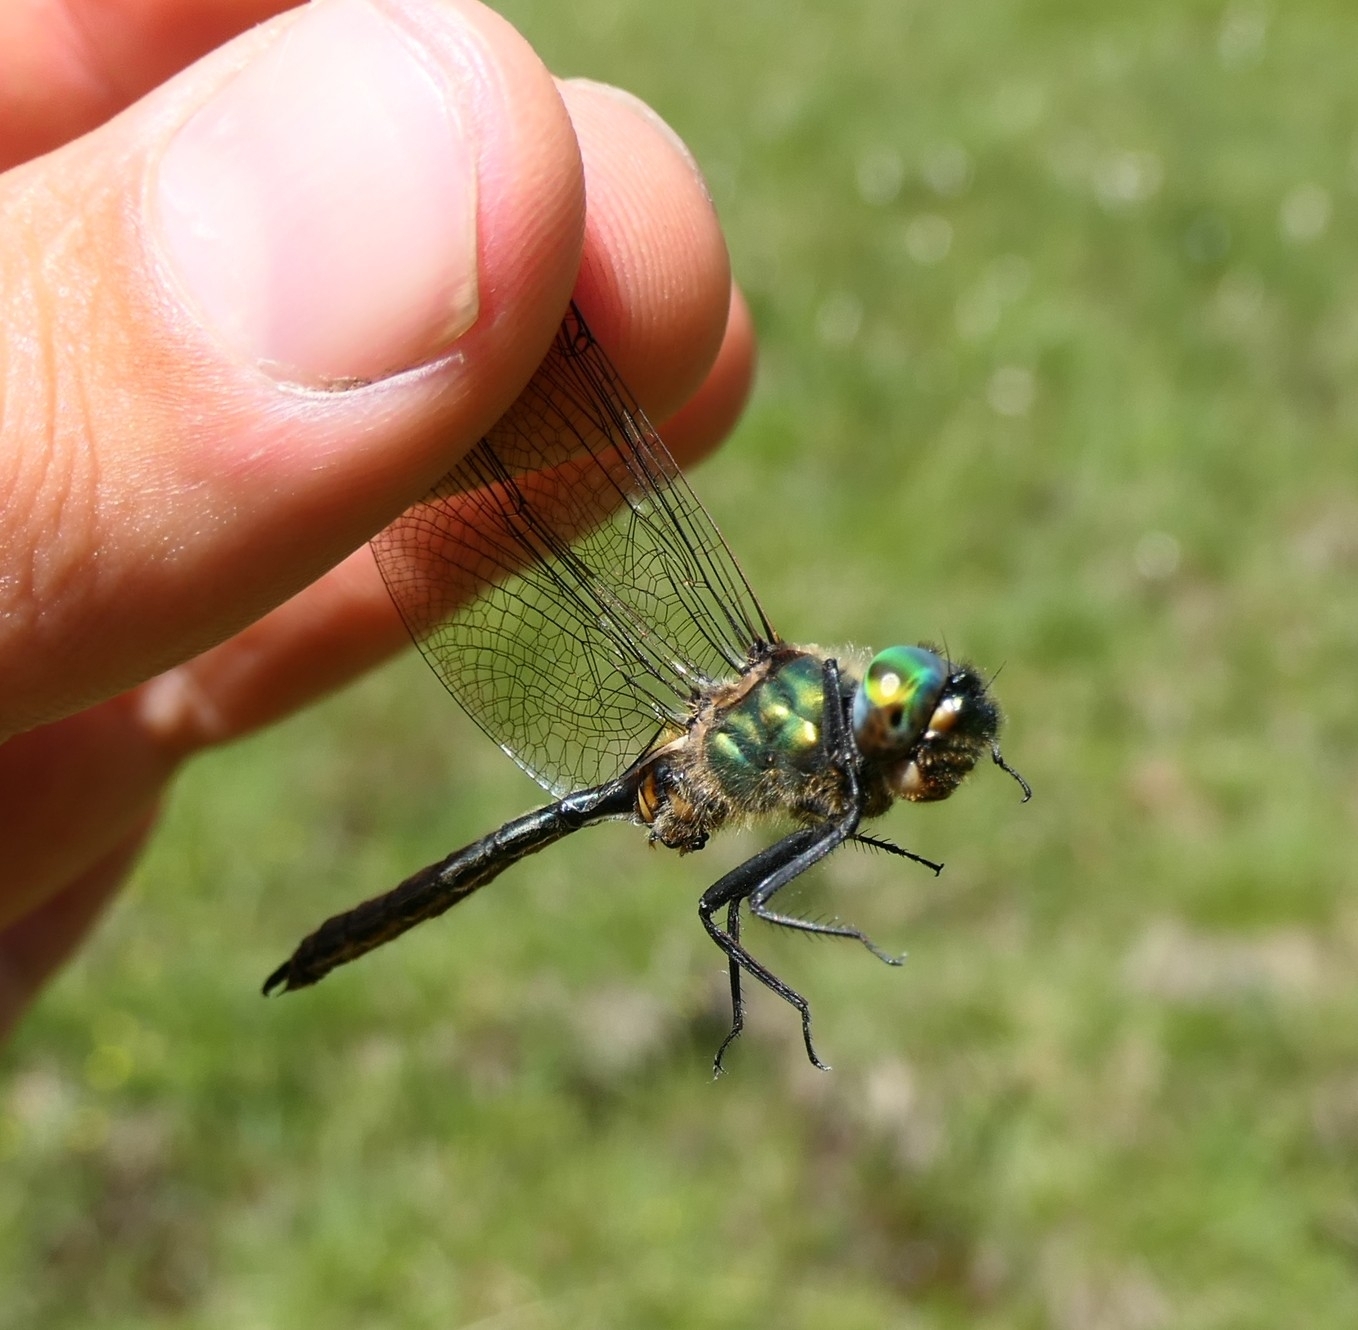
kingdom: Animalia
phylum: Arthropoda
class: Insecta
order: Odonata
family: Corduliidae
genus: Somatochlora
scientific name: Somatochlora arctica
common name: Northern emerald
